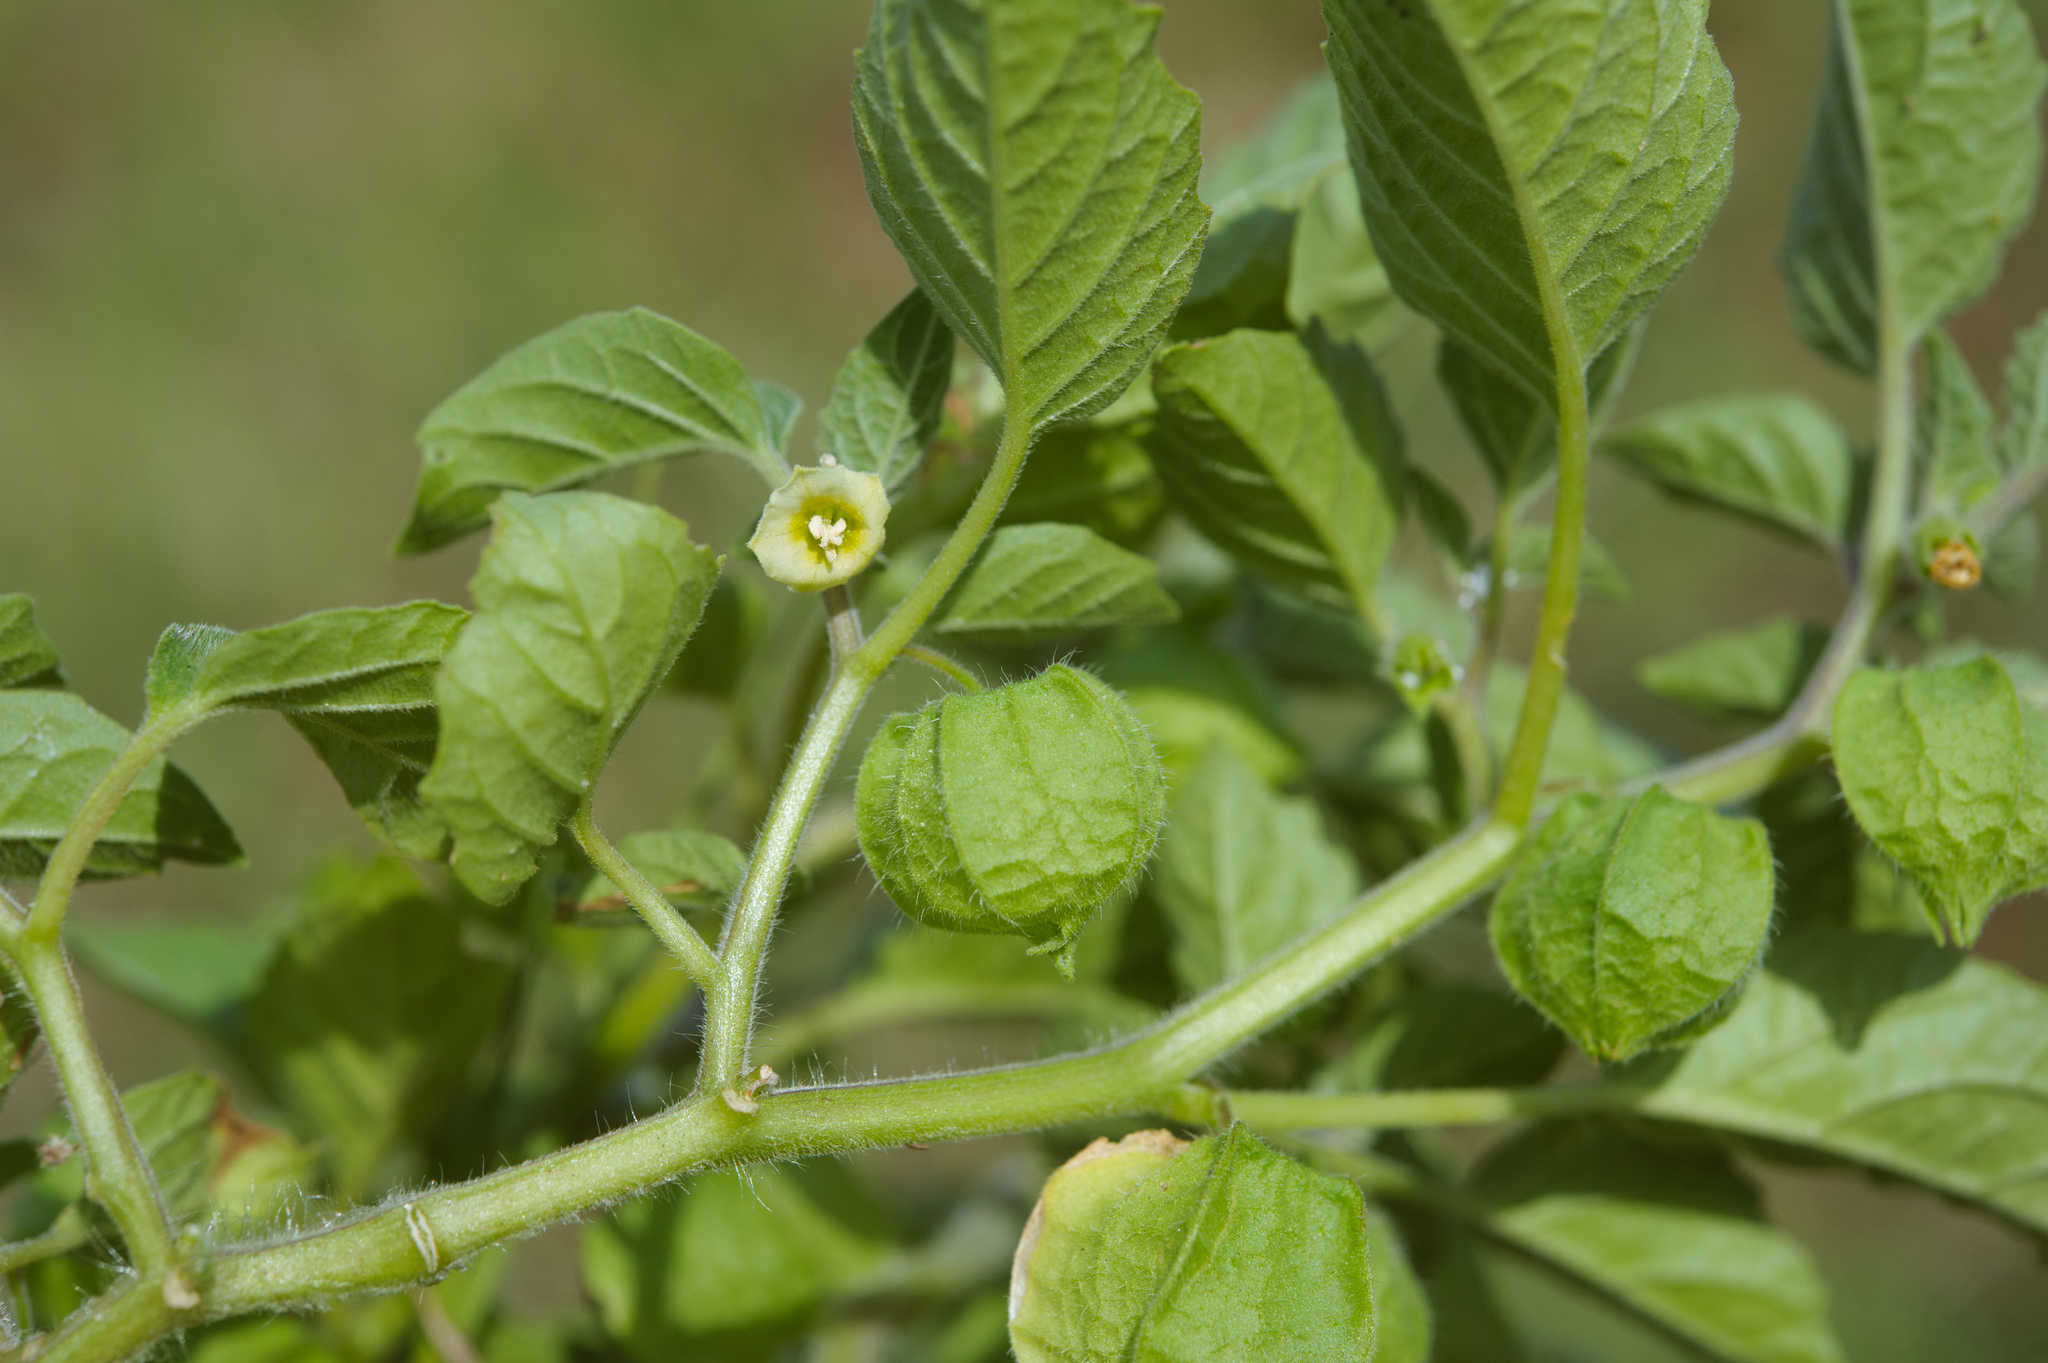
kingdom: Plantae
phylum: Tracheophyta
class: Magnoliopsida
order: Solanales
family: Solanaceae
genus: Physalis
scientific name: Physalis peruviana
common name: Cape-gooseberry
